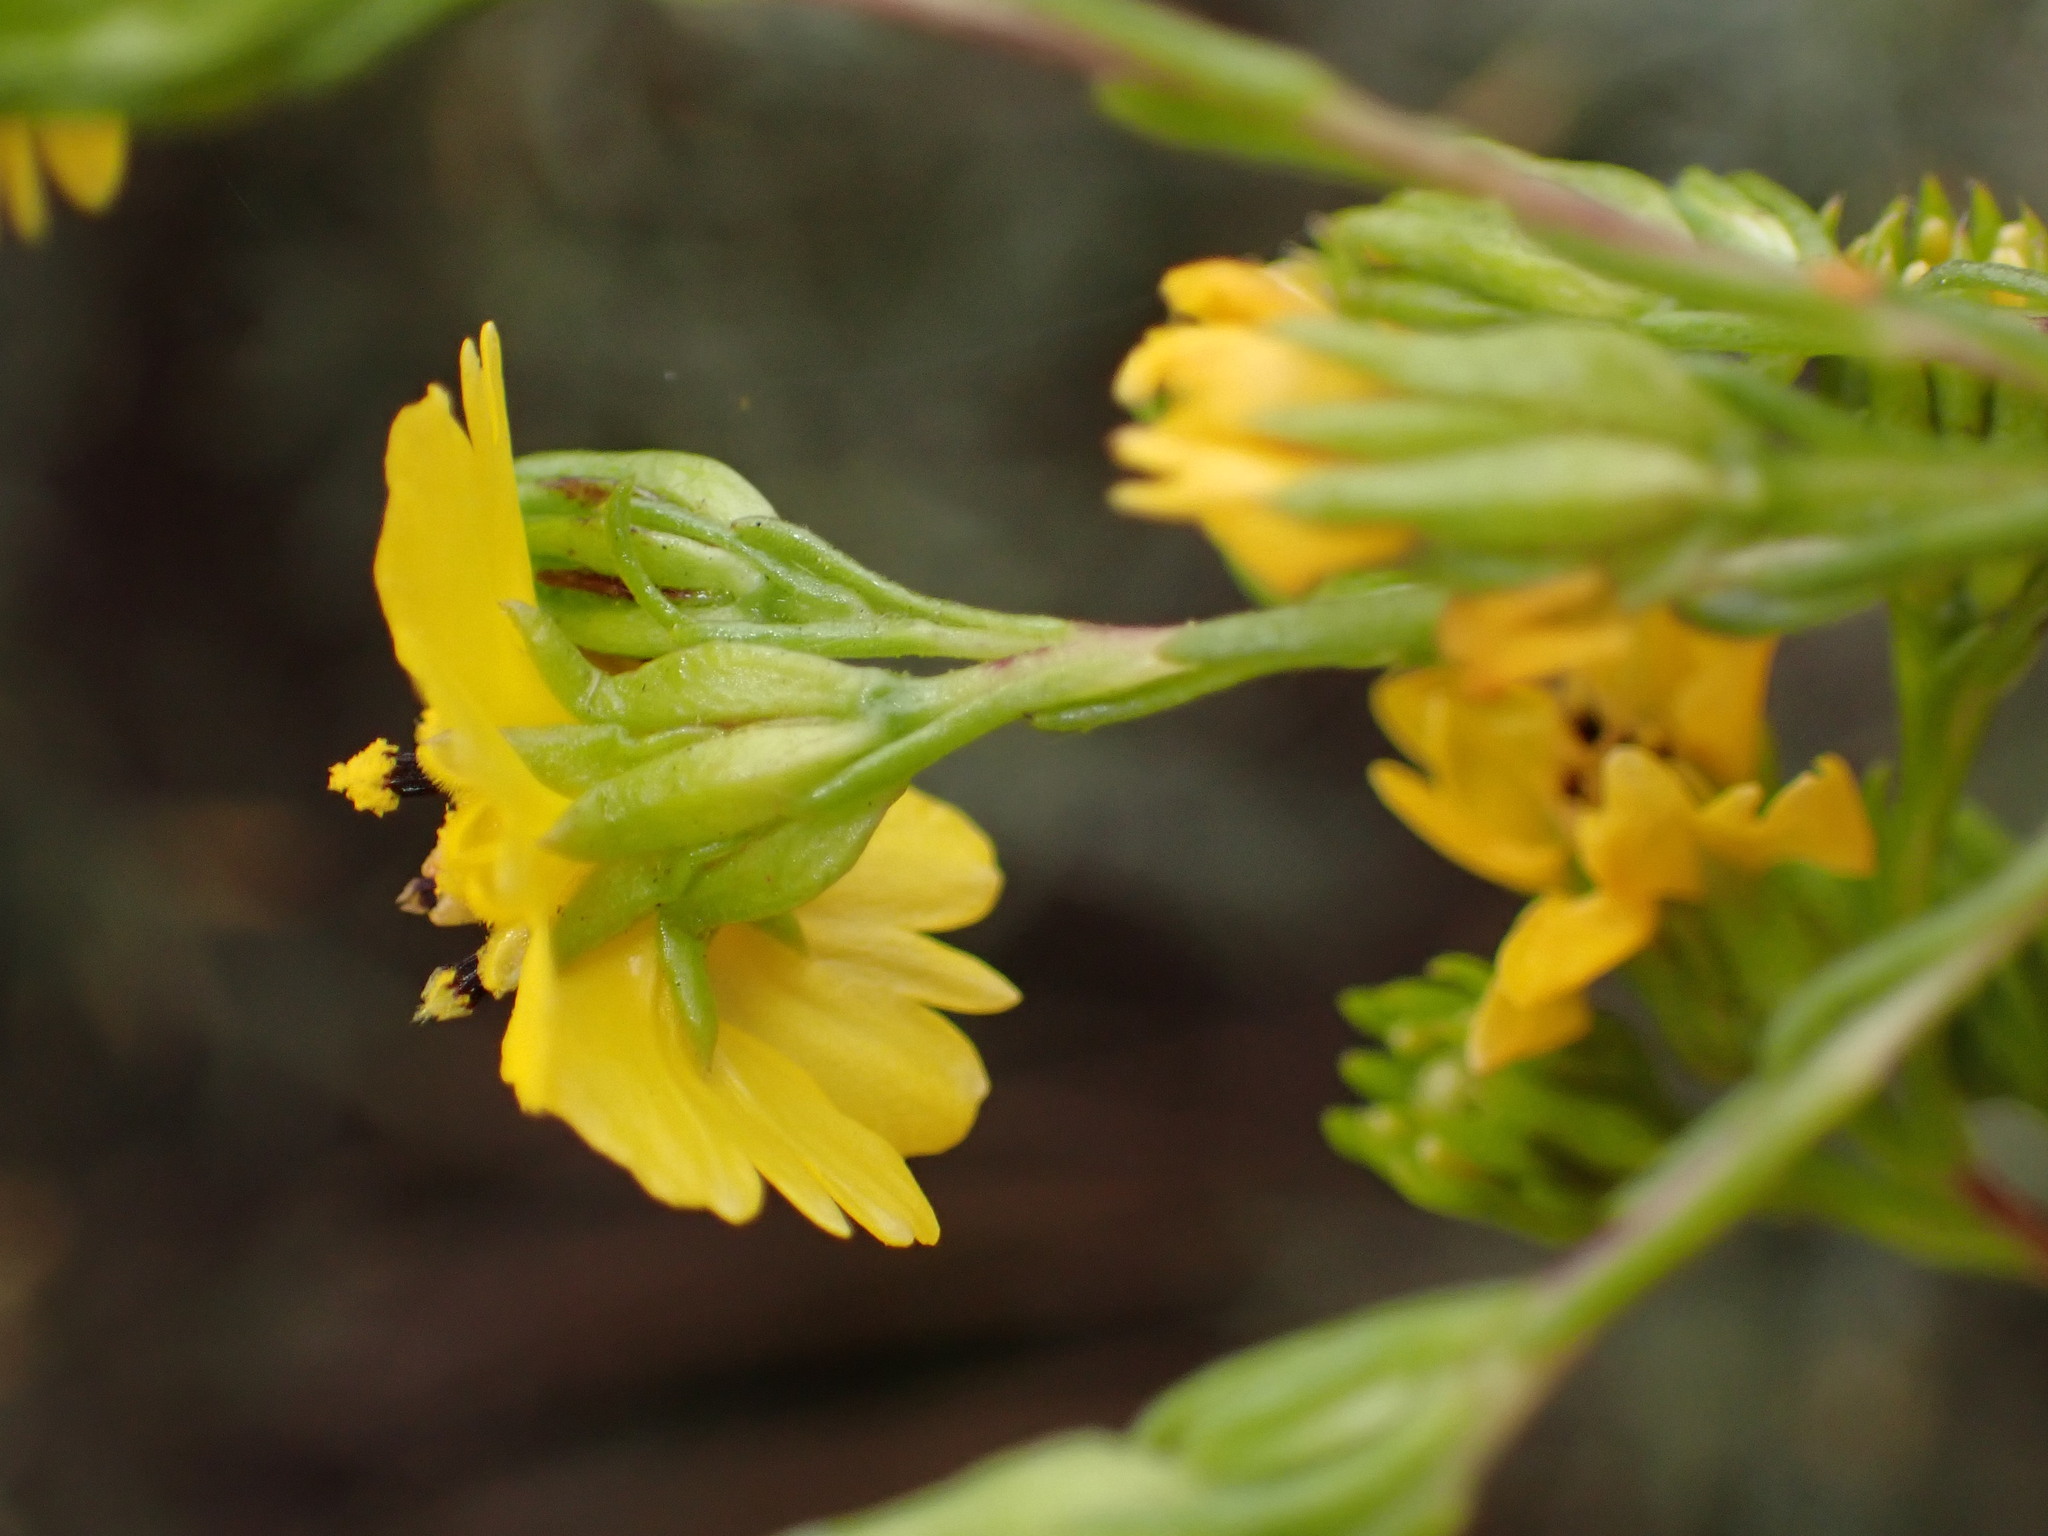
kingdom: Plantae
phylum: Tracheophyta
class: Magnoliopsida
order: Asterales
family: Asteraceae
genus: Deinandra
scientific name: Deinandra fasciculata
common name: Clustered tarweed
